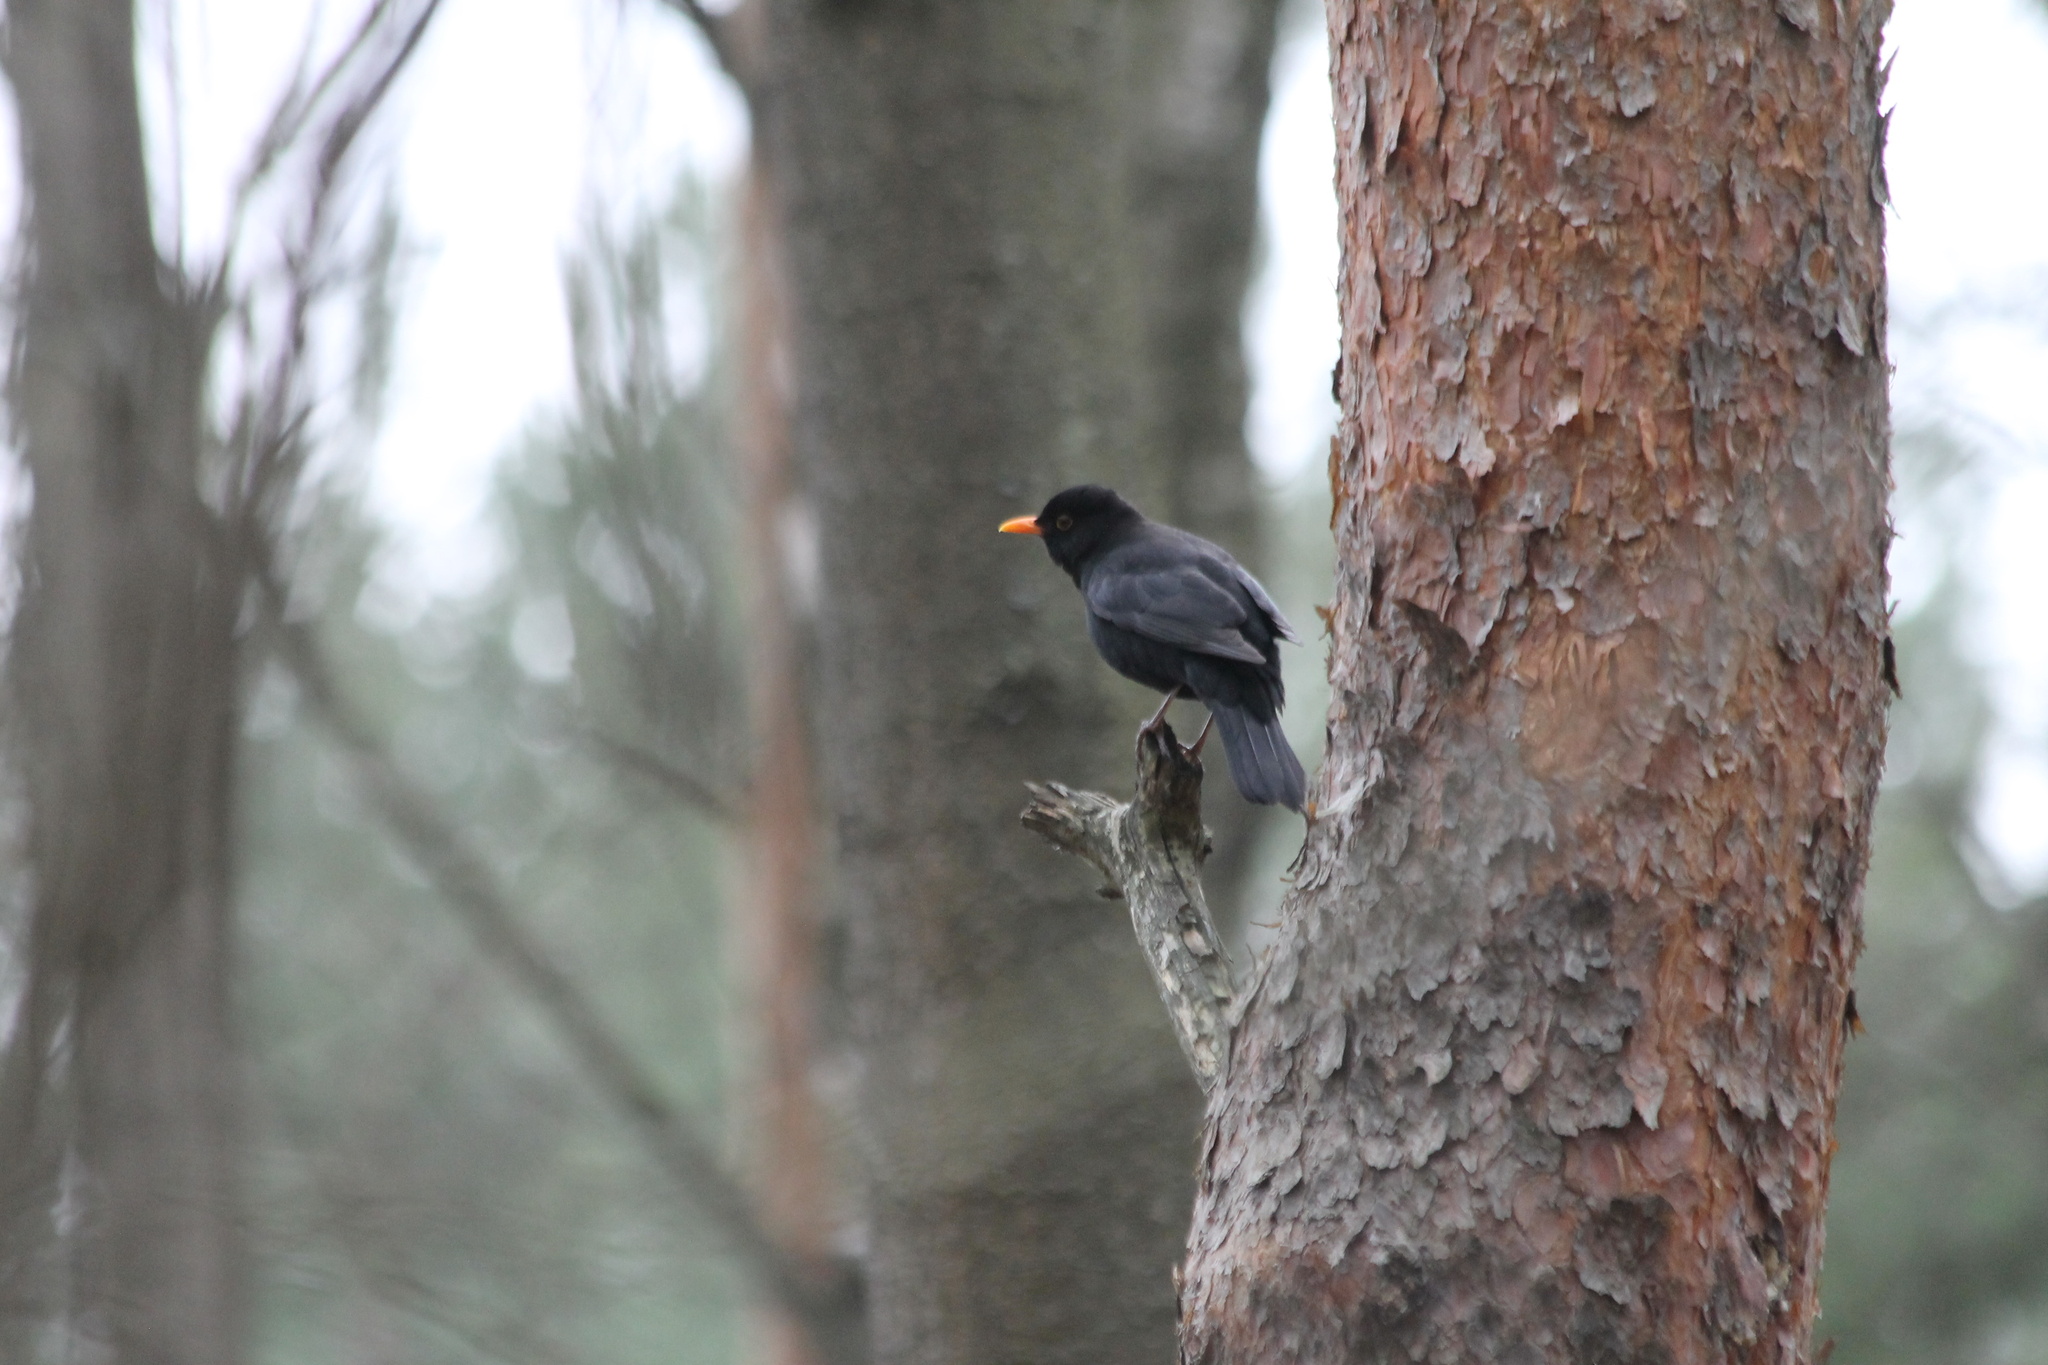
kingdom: Animalia
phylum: Chordata
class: Aves
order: Passeriformes
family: Turdidae
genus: Turdus
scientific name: Turdus merula
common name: Common blackbird
